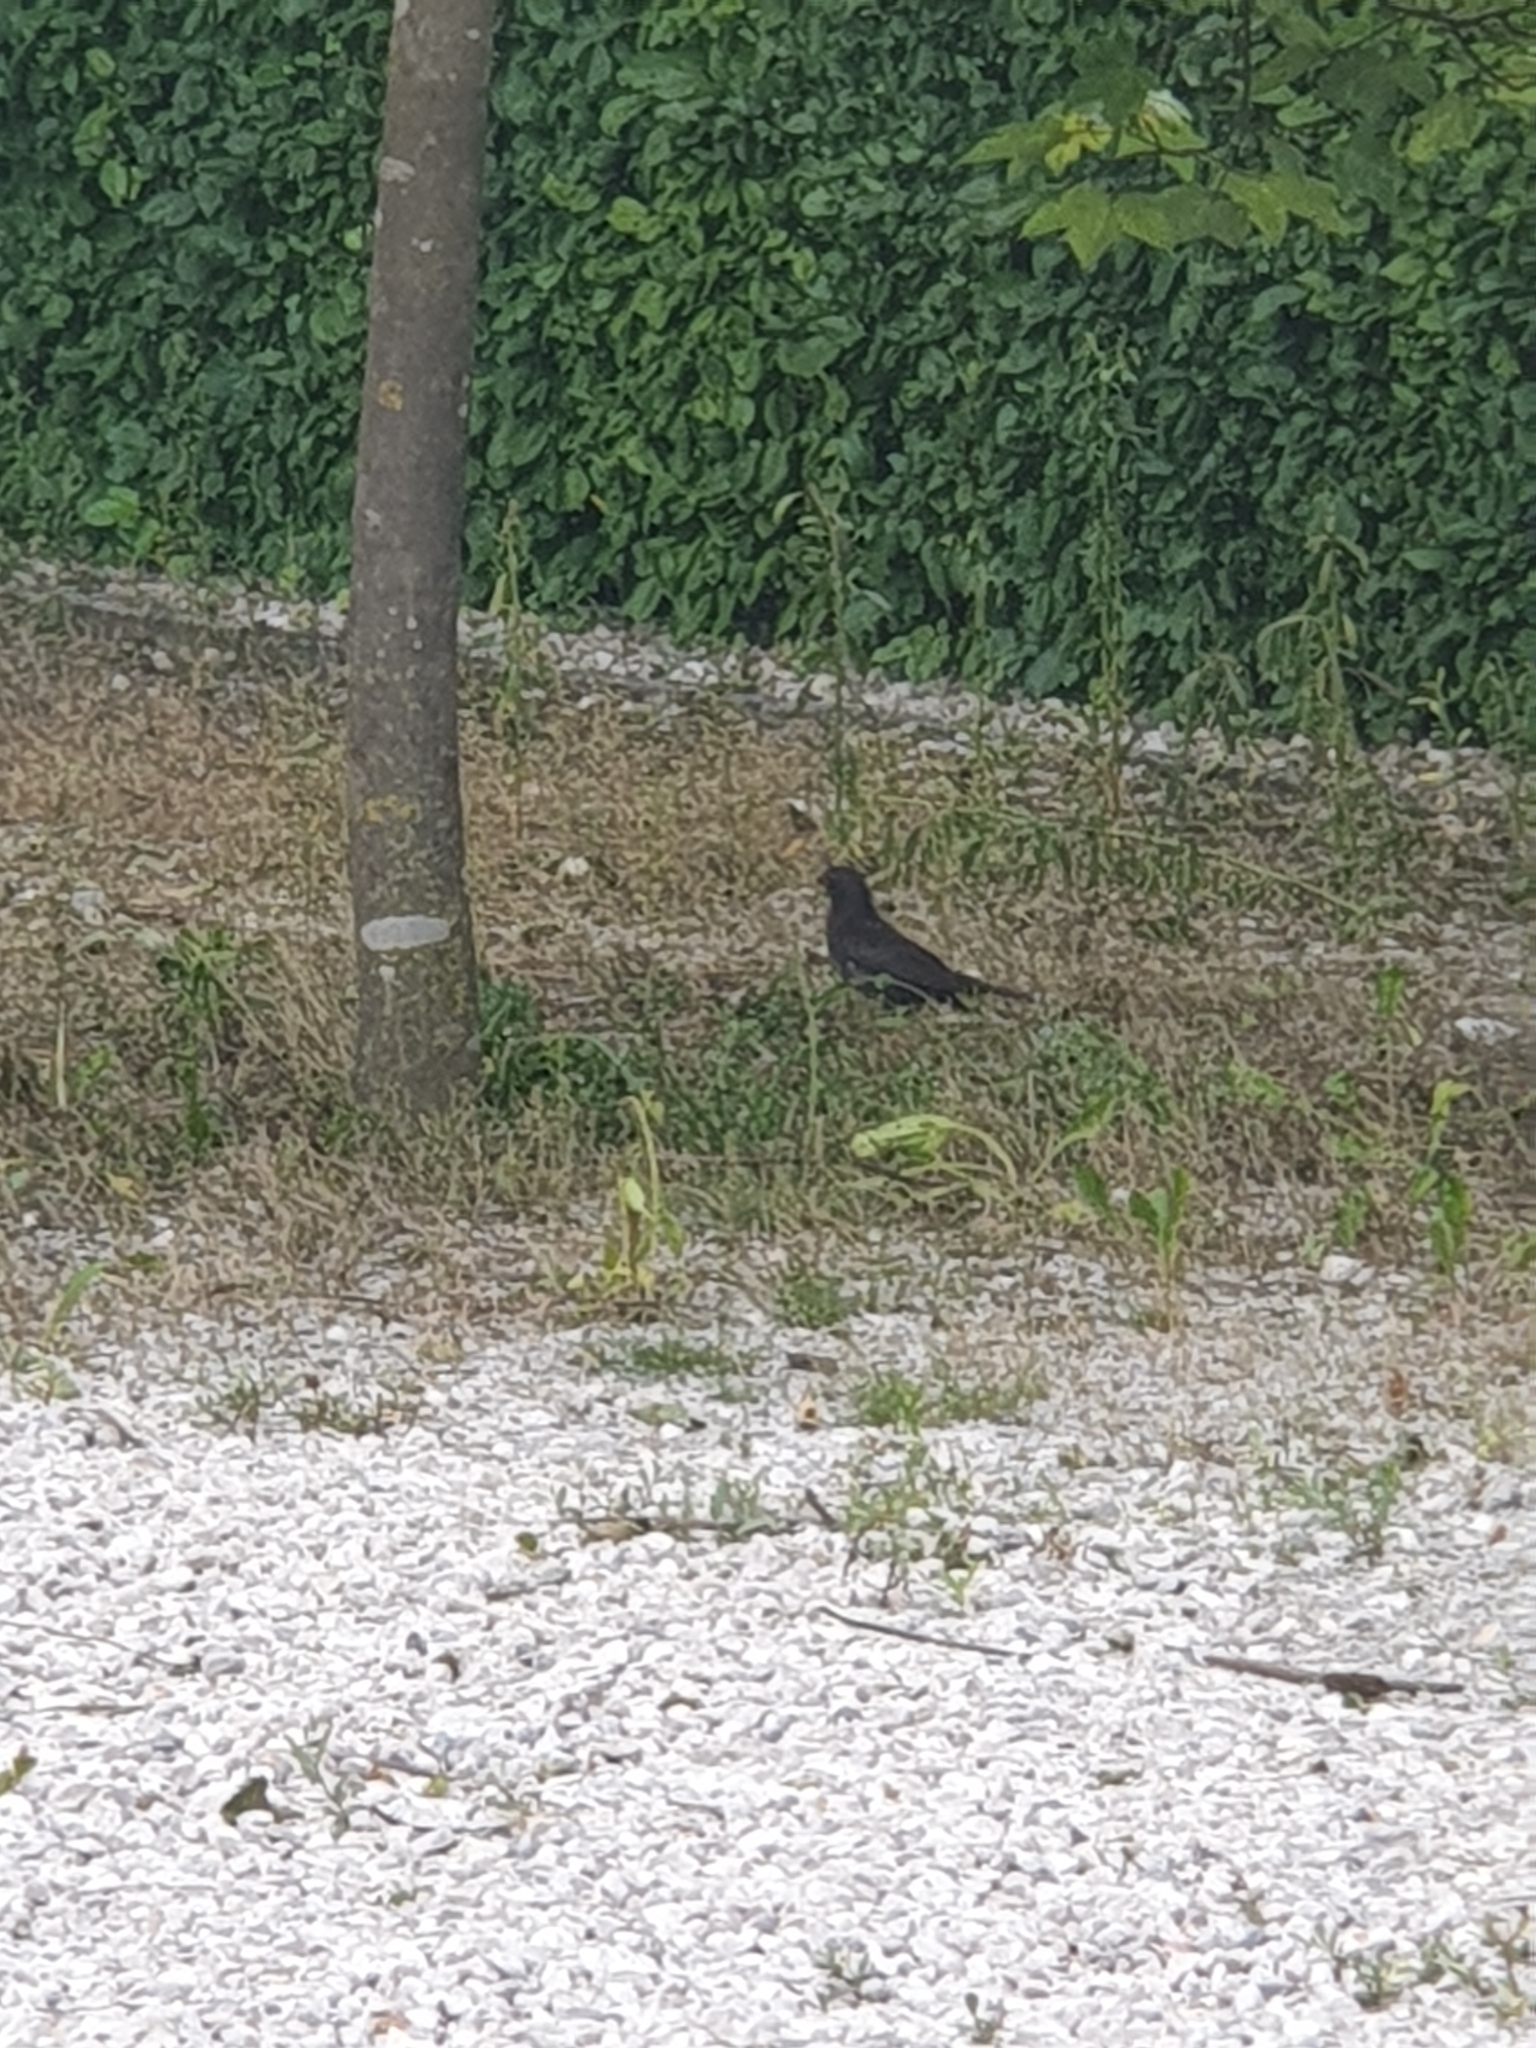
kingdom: Animalia
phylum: Chordata
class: Aves
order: Passeriformes
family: Turdidae
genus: Turdus
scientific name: Turdus merula
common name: Common blackbird
